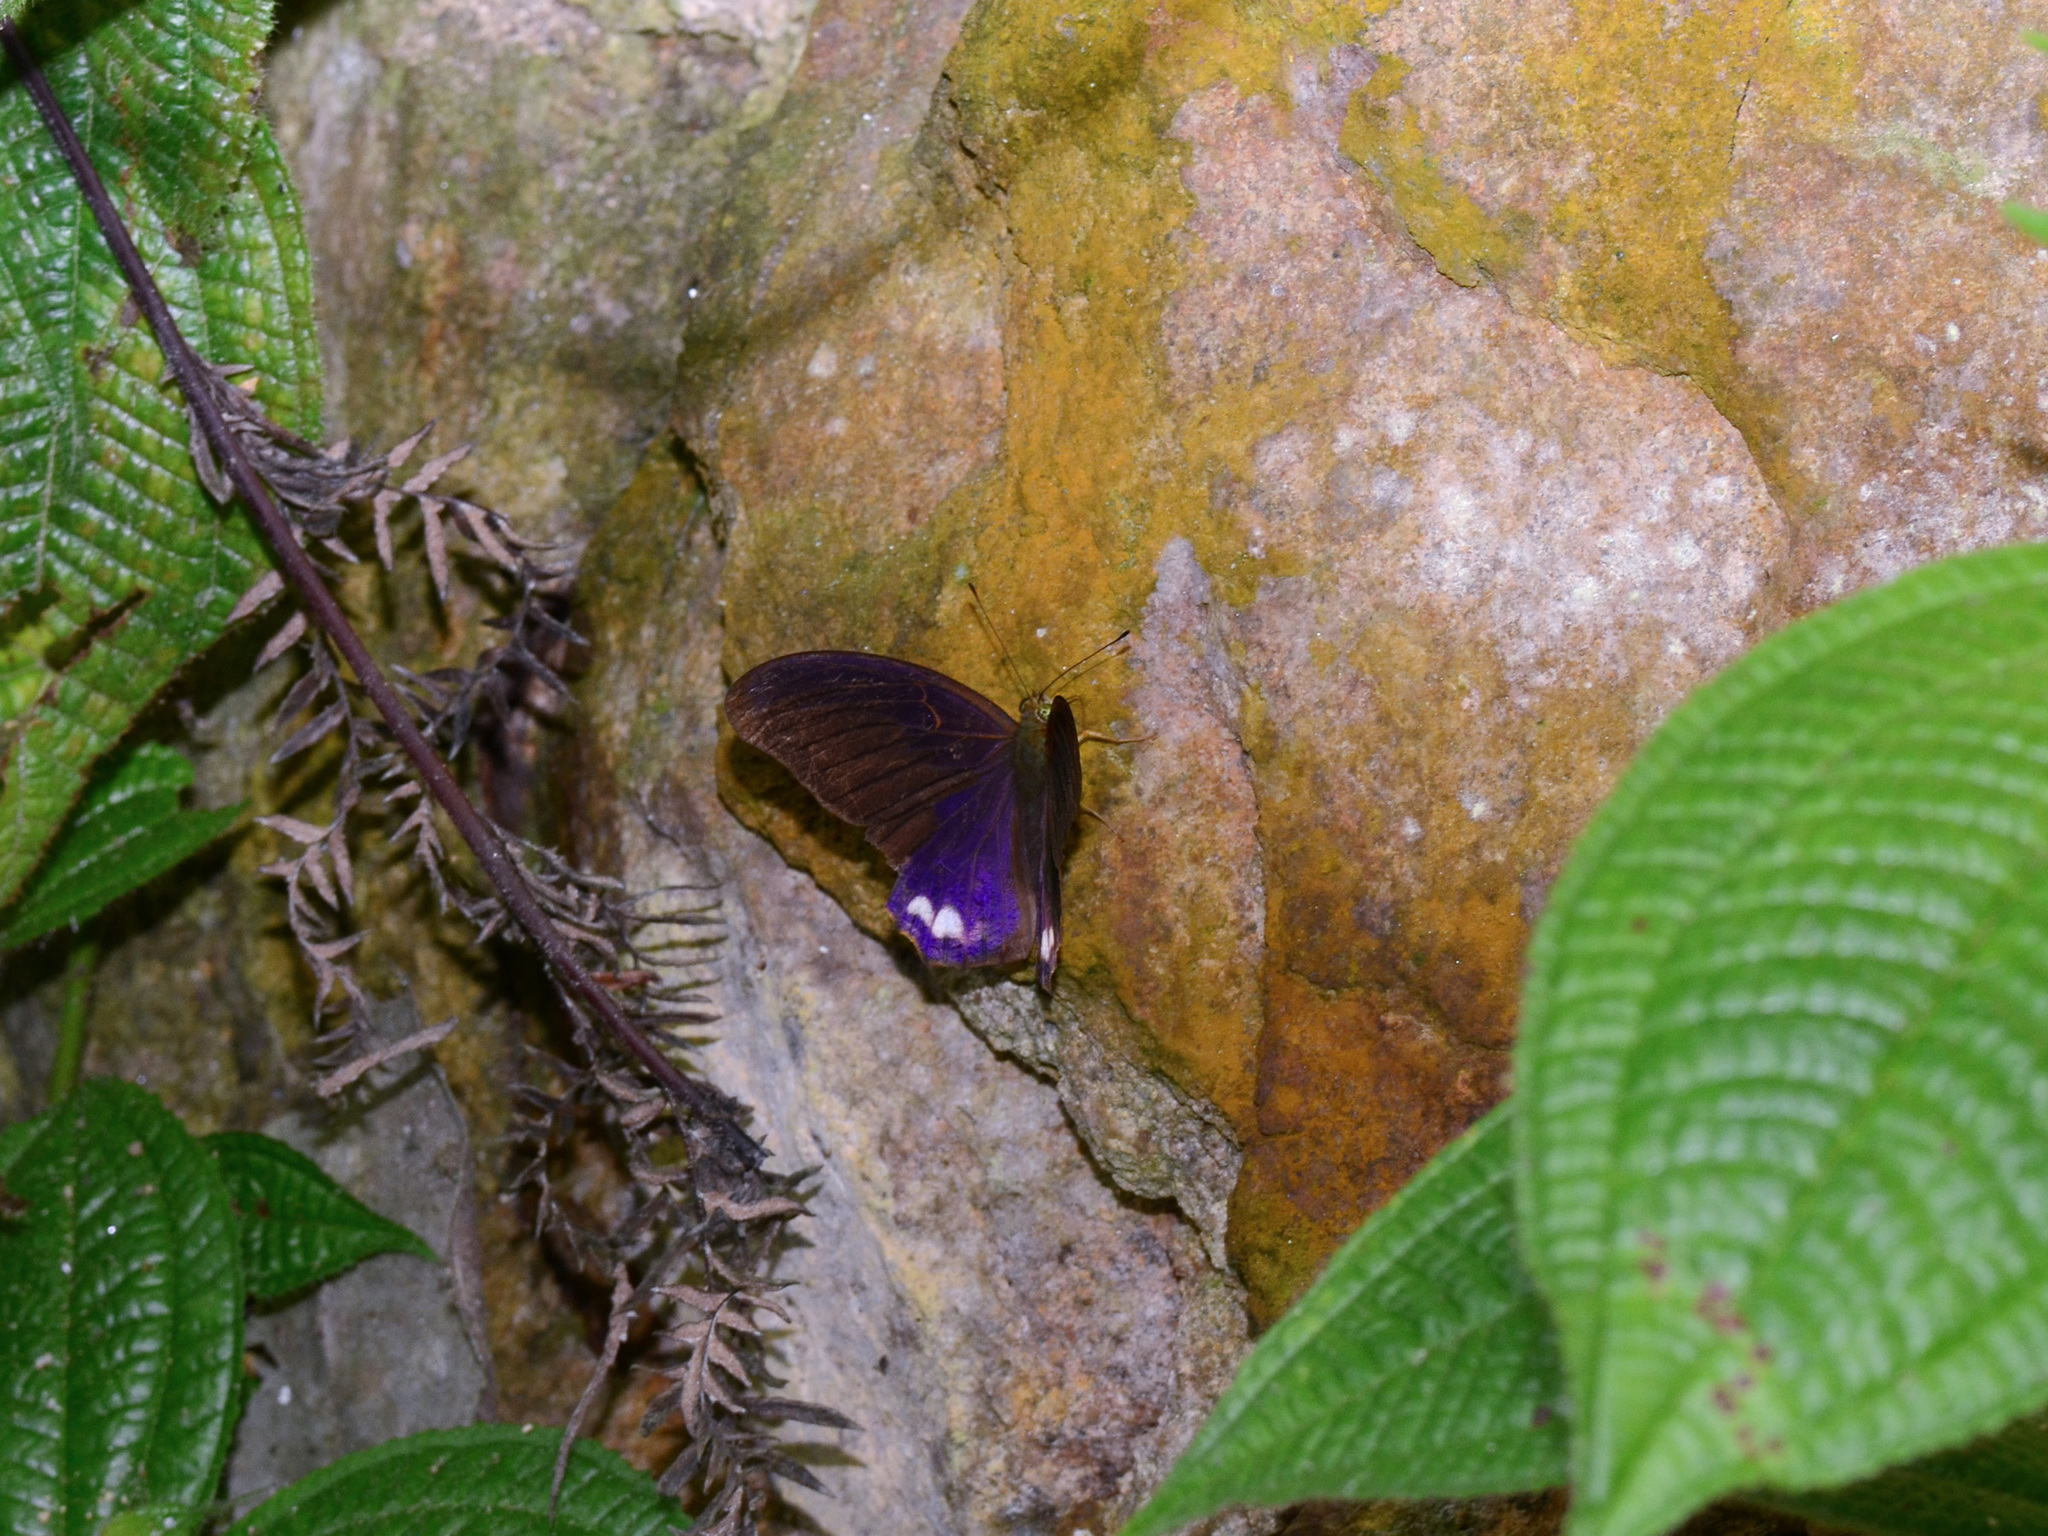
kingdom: Animalia
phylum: Arthropoda
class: Insecta
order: Lepidoptera
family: Nymphalidae
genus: Terinos
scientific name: Terinos terpander
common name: Royal assyrian
